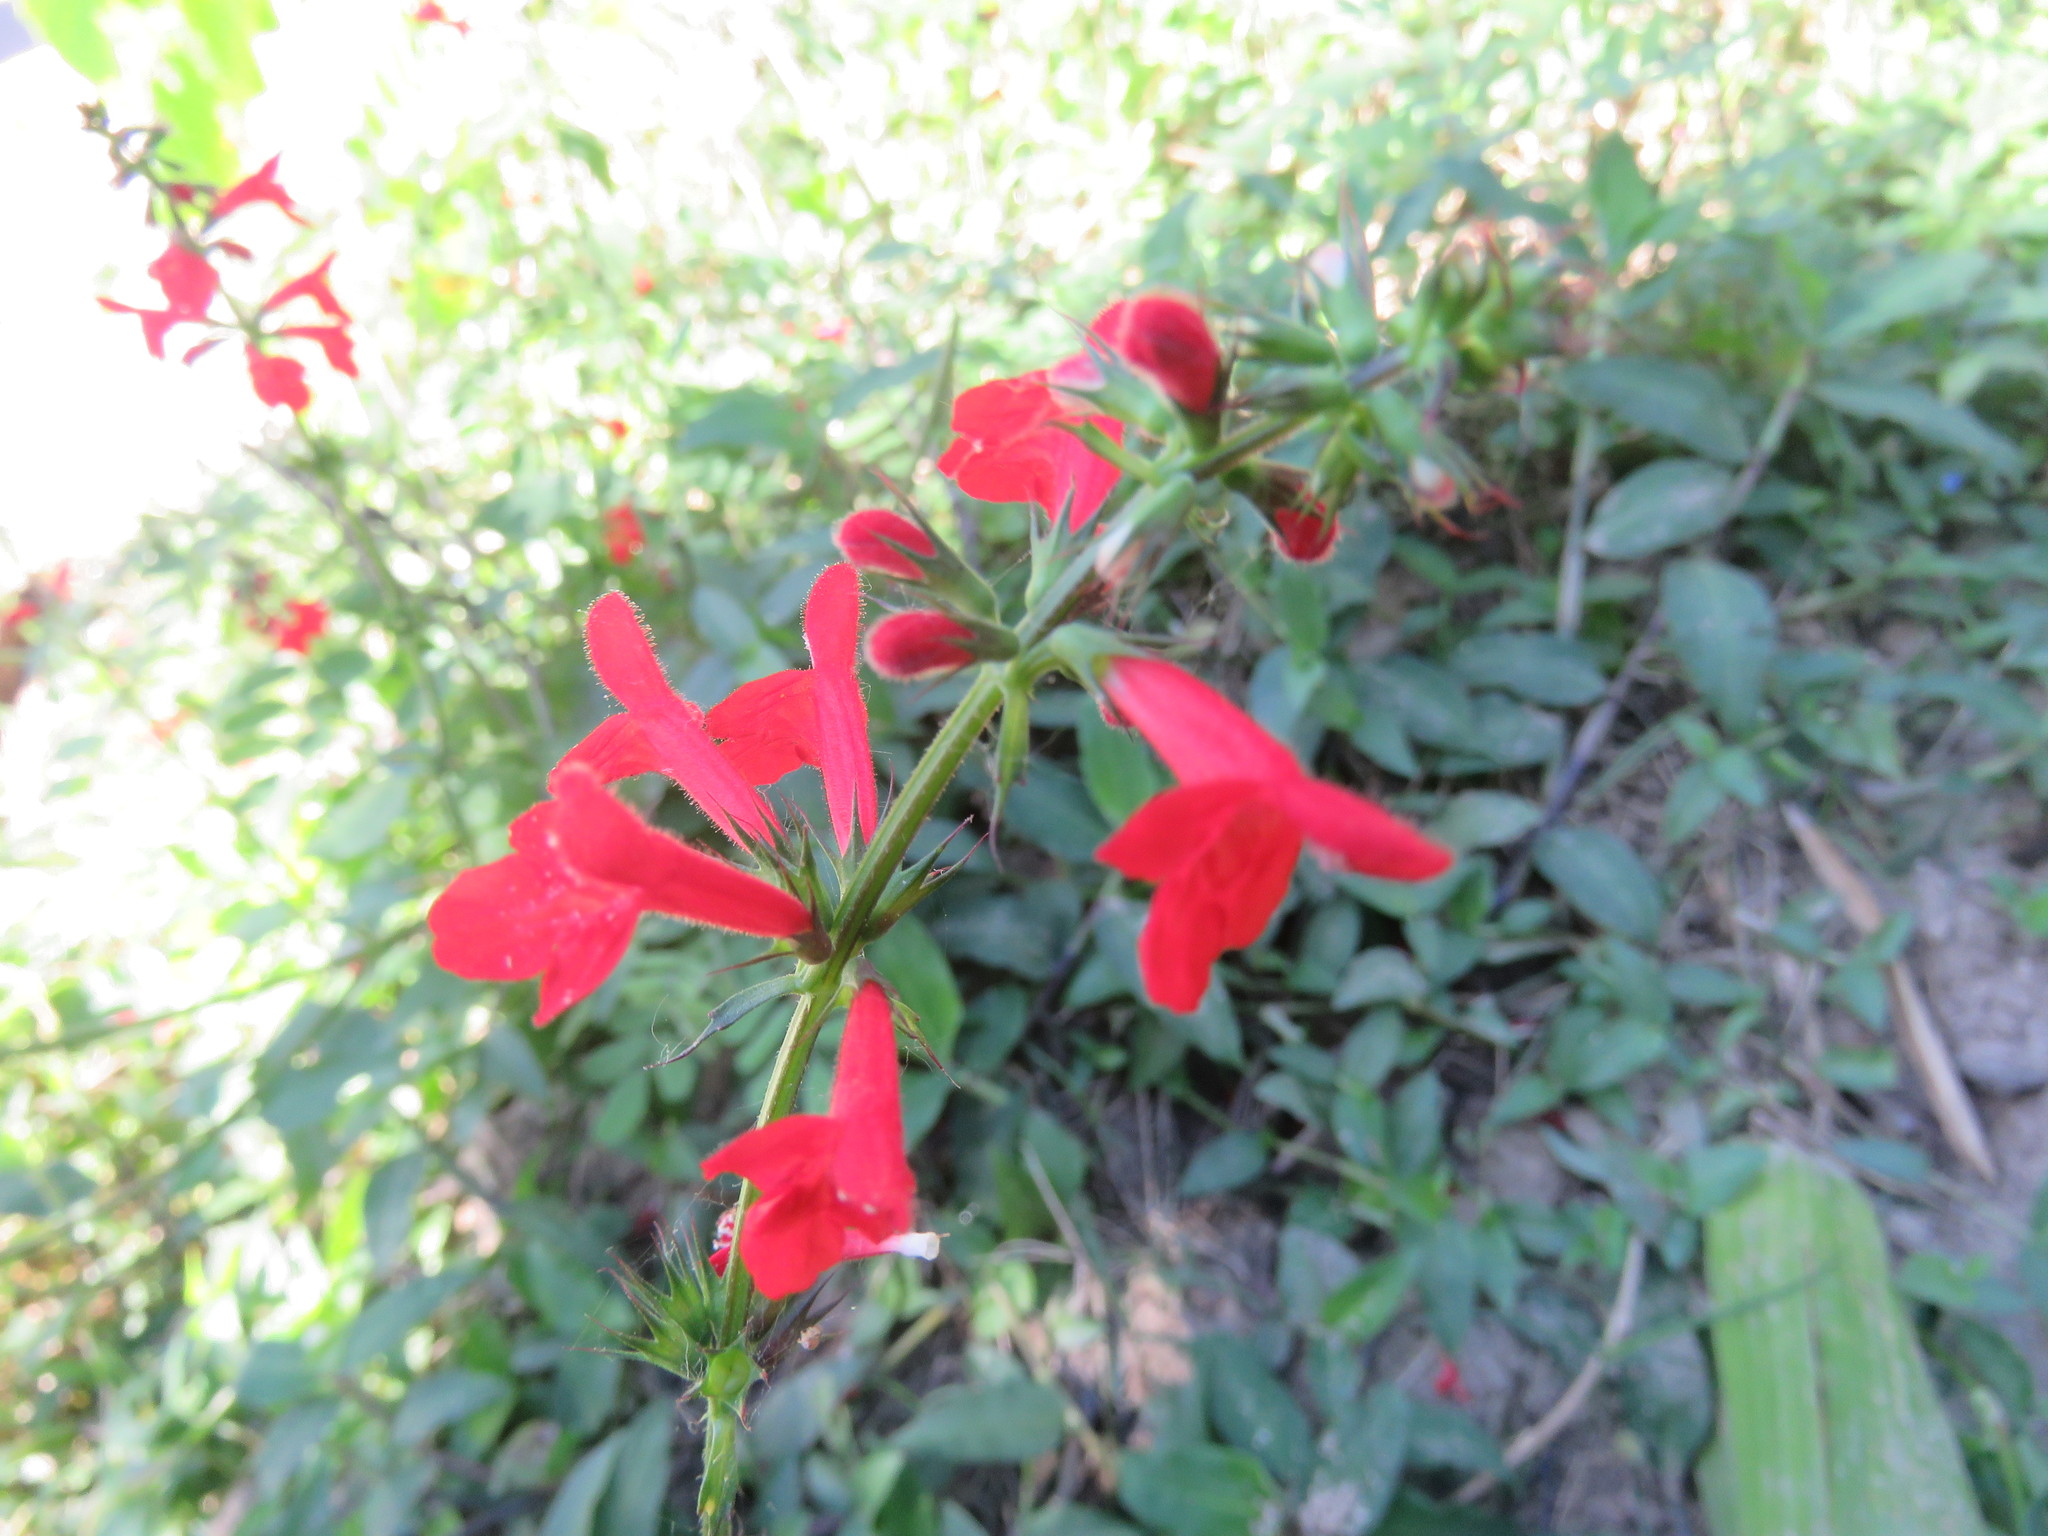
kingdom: Plantae
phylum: Tracheophyta
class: Magnoliopsida
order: Lamiales
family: Lamiaceae
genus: Stachys
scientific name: Stachys coccinea
